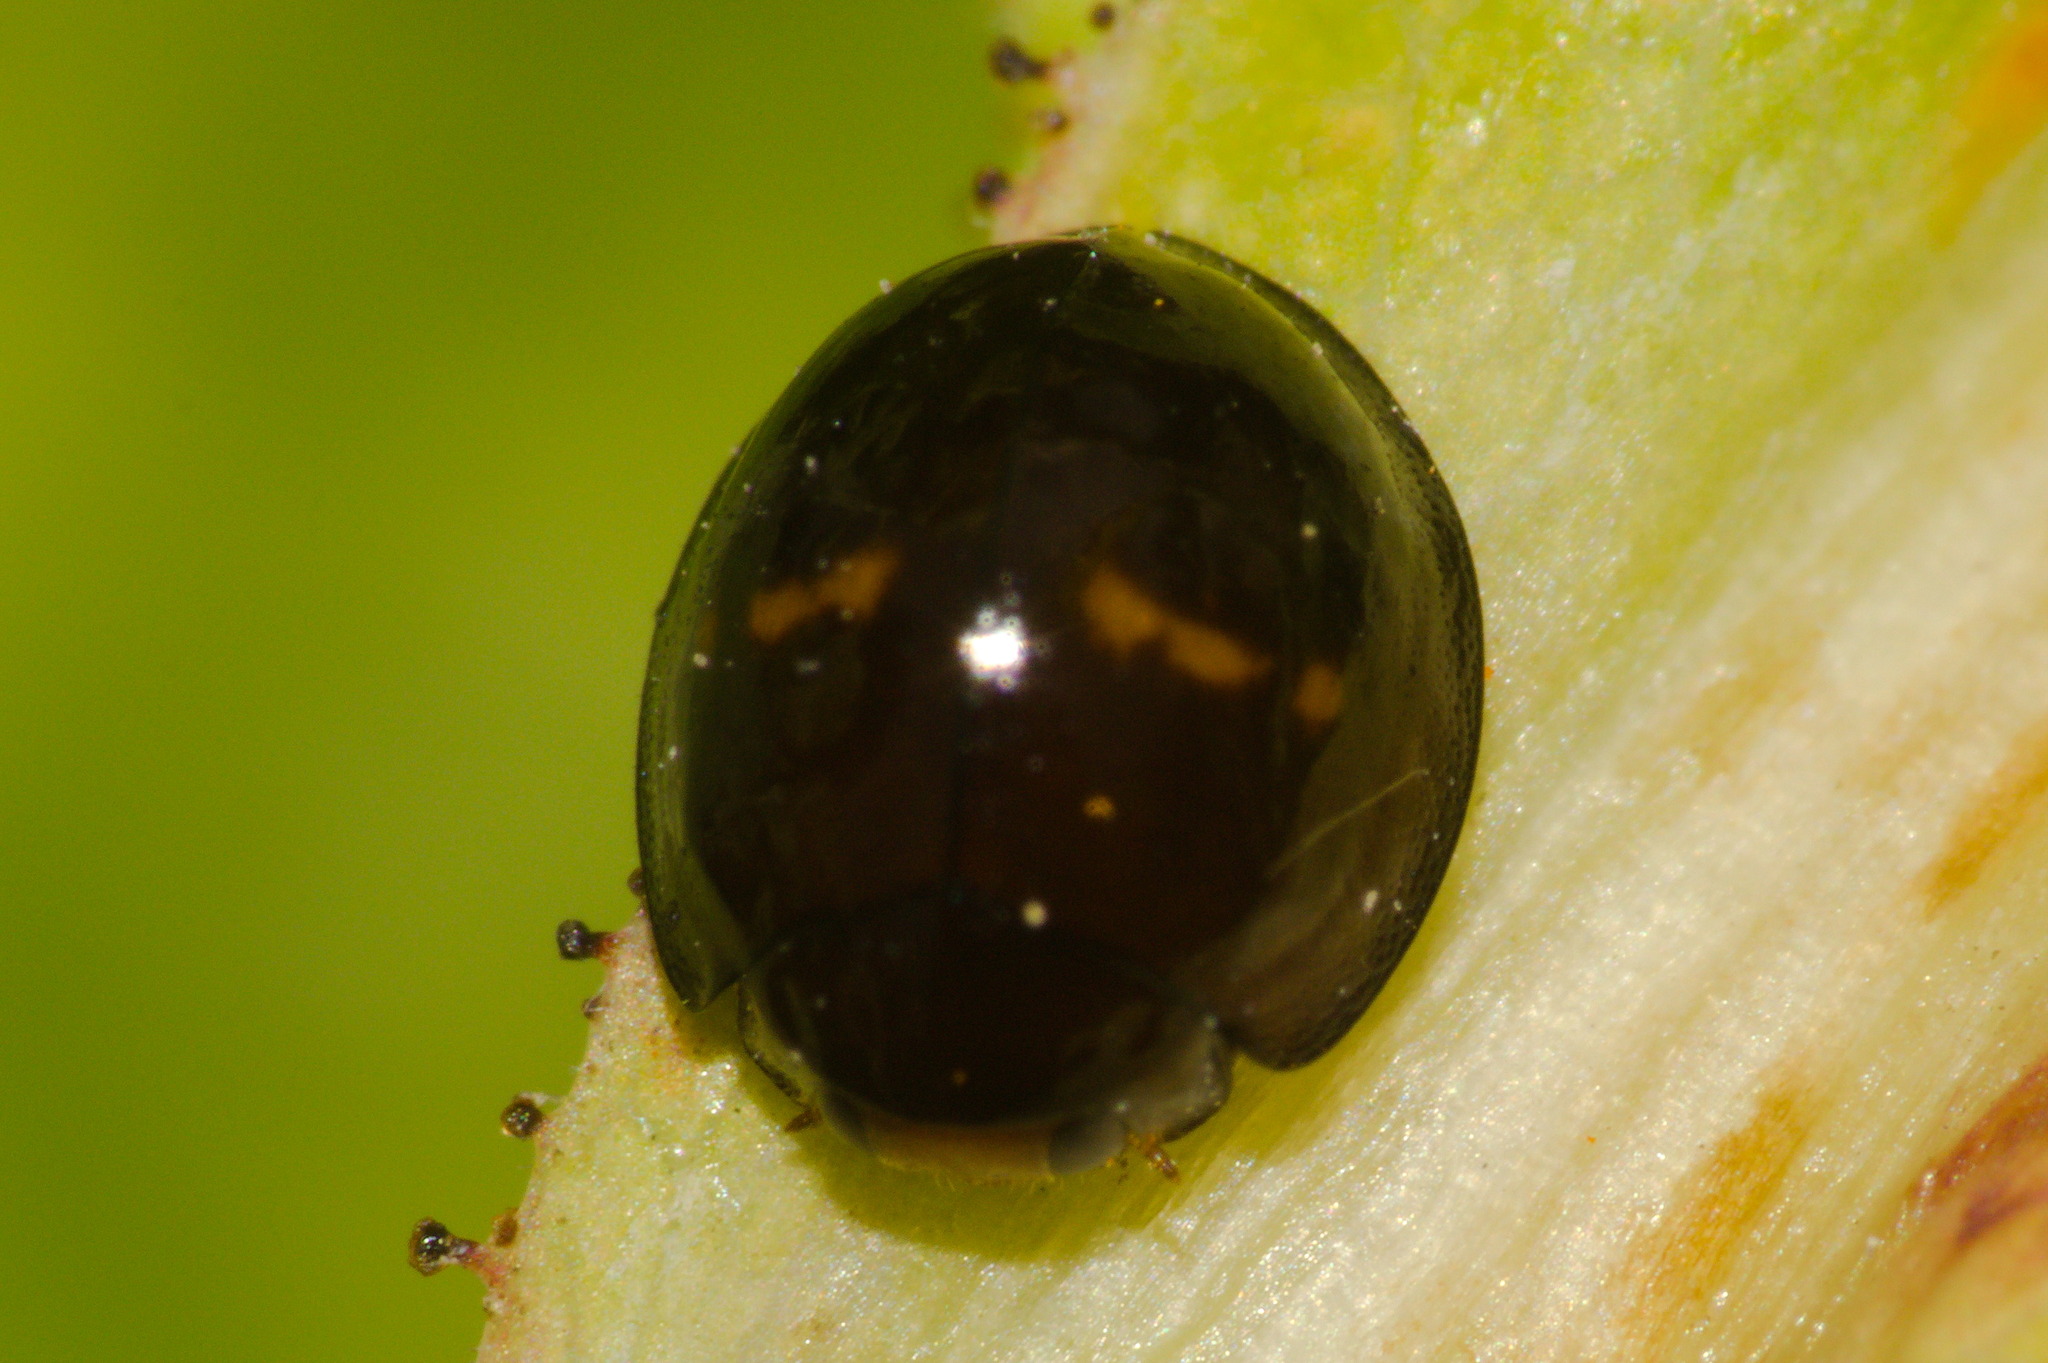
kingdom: Animalia
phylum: Arthropoda
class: Insecta
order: Coleoptera
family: Coccinellidae
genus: Chilocorus
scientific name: Chilocorus bipustulatus
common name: Heather ladybird
